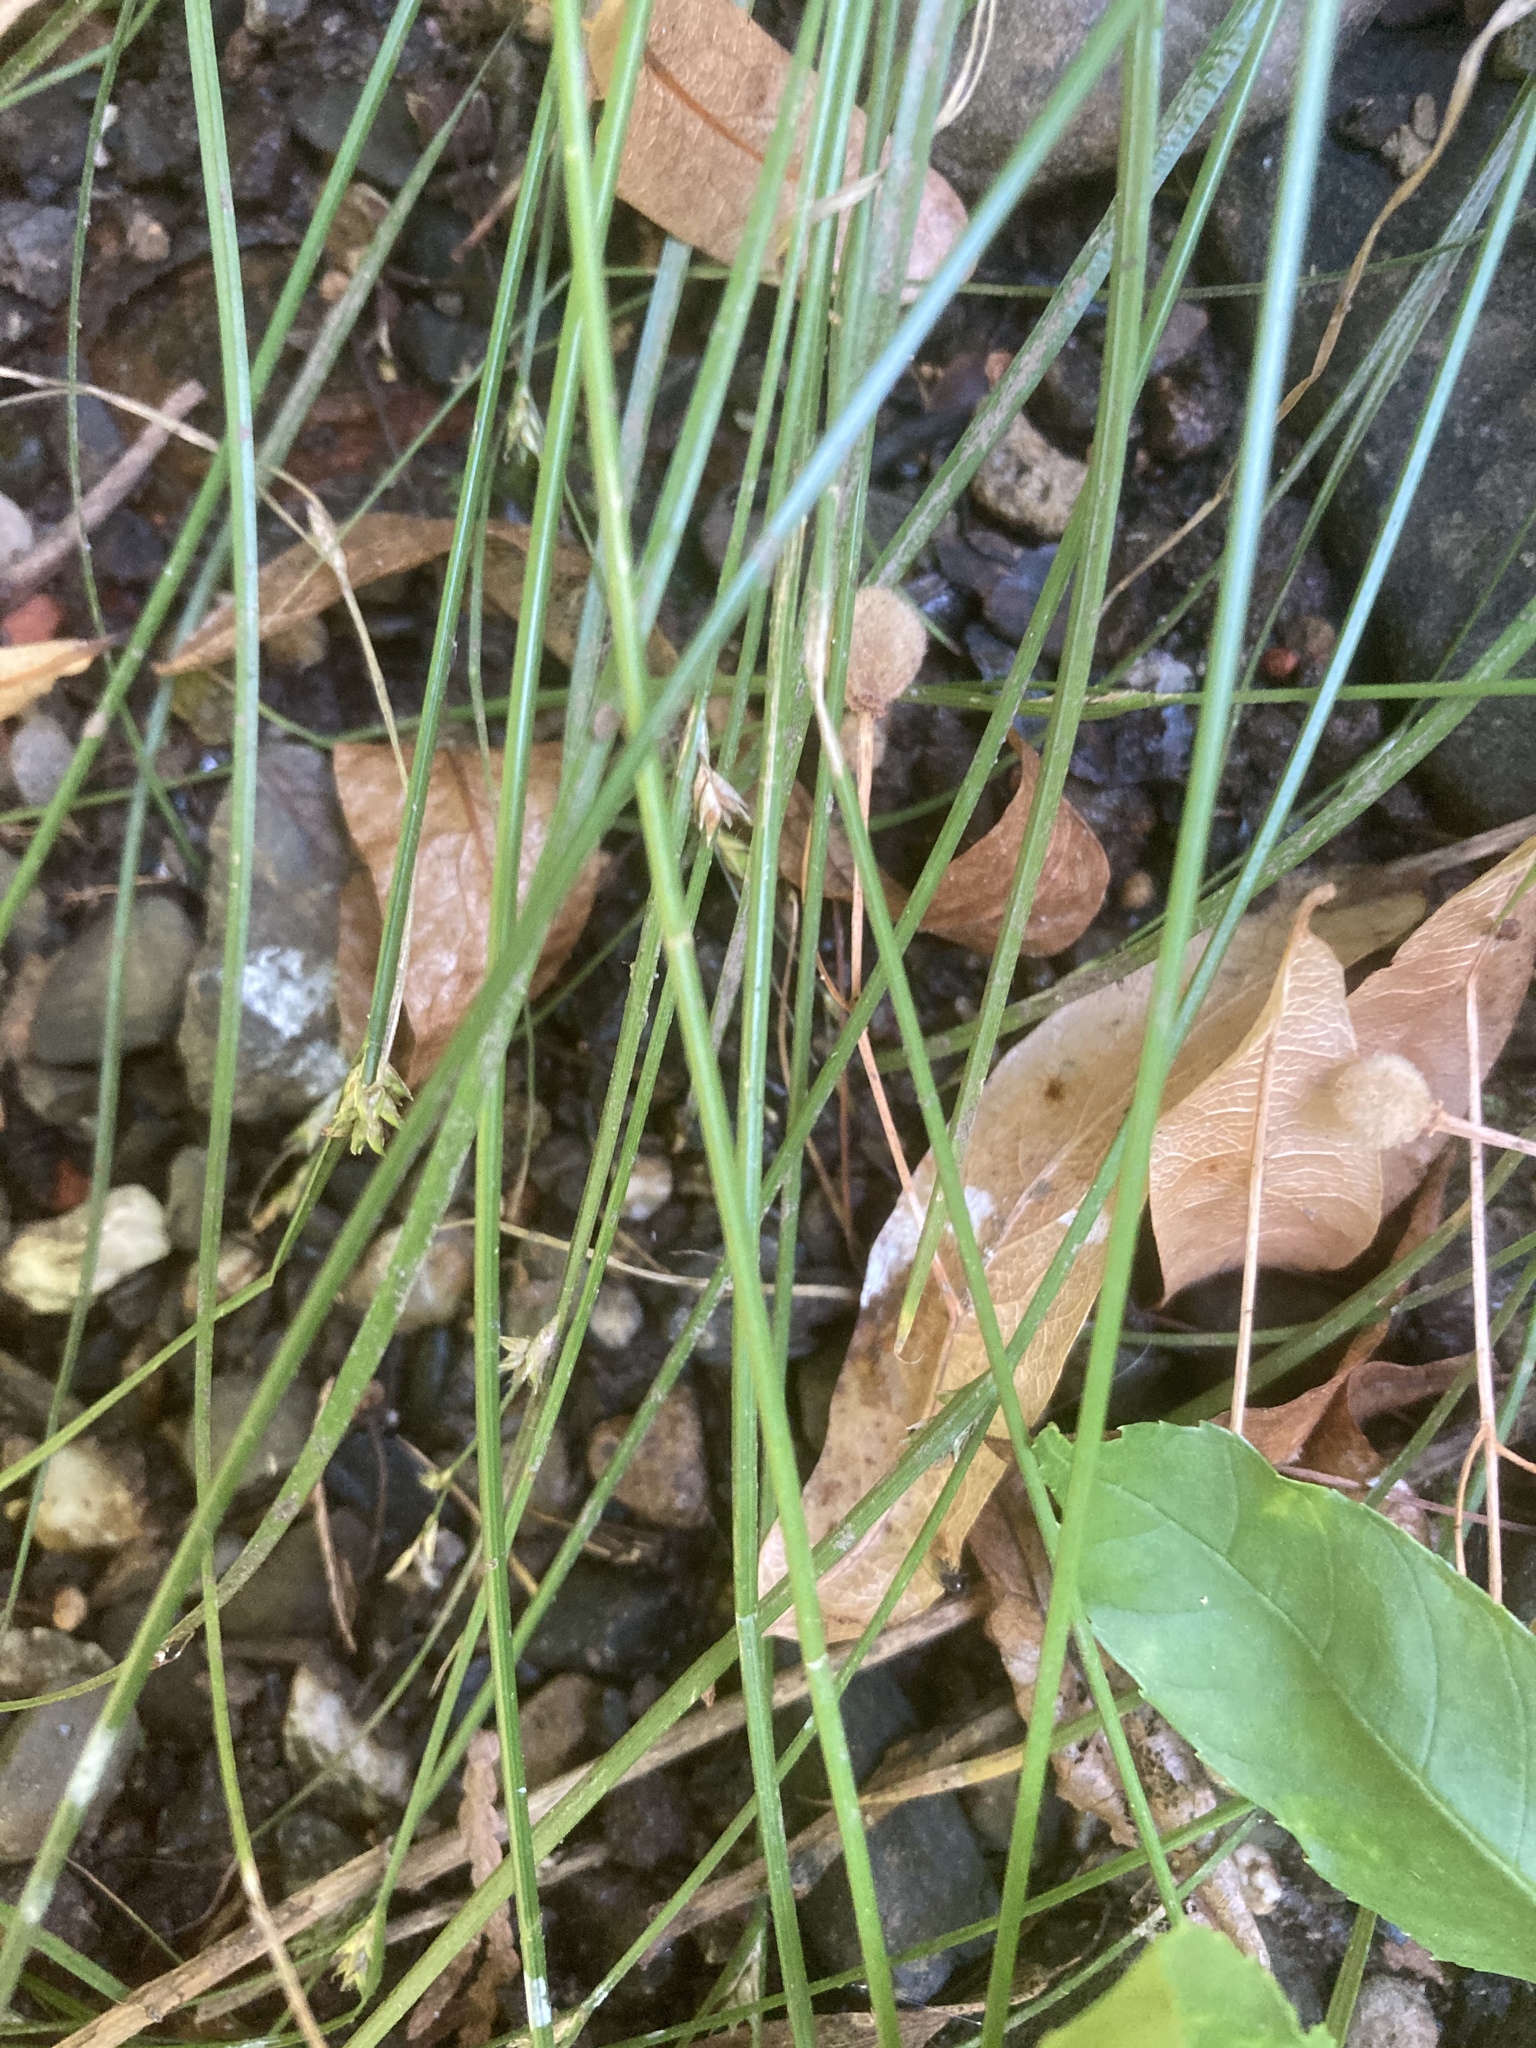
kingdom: Plantae
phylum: Tracheophyta
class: Liliopsida
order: Poales
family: Cyperaceae
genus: Carex
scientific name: Carex remota
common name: Remote sedge
